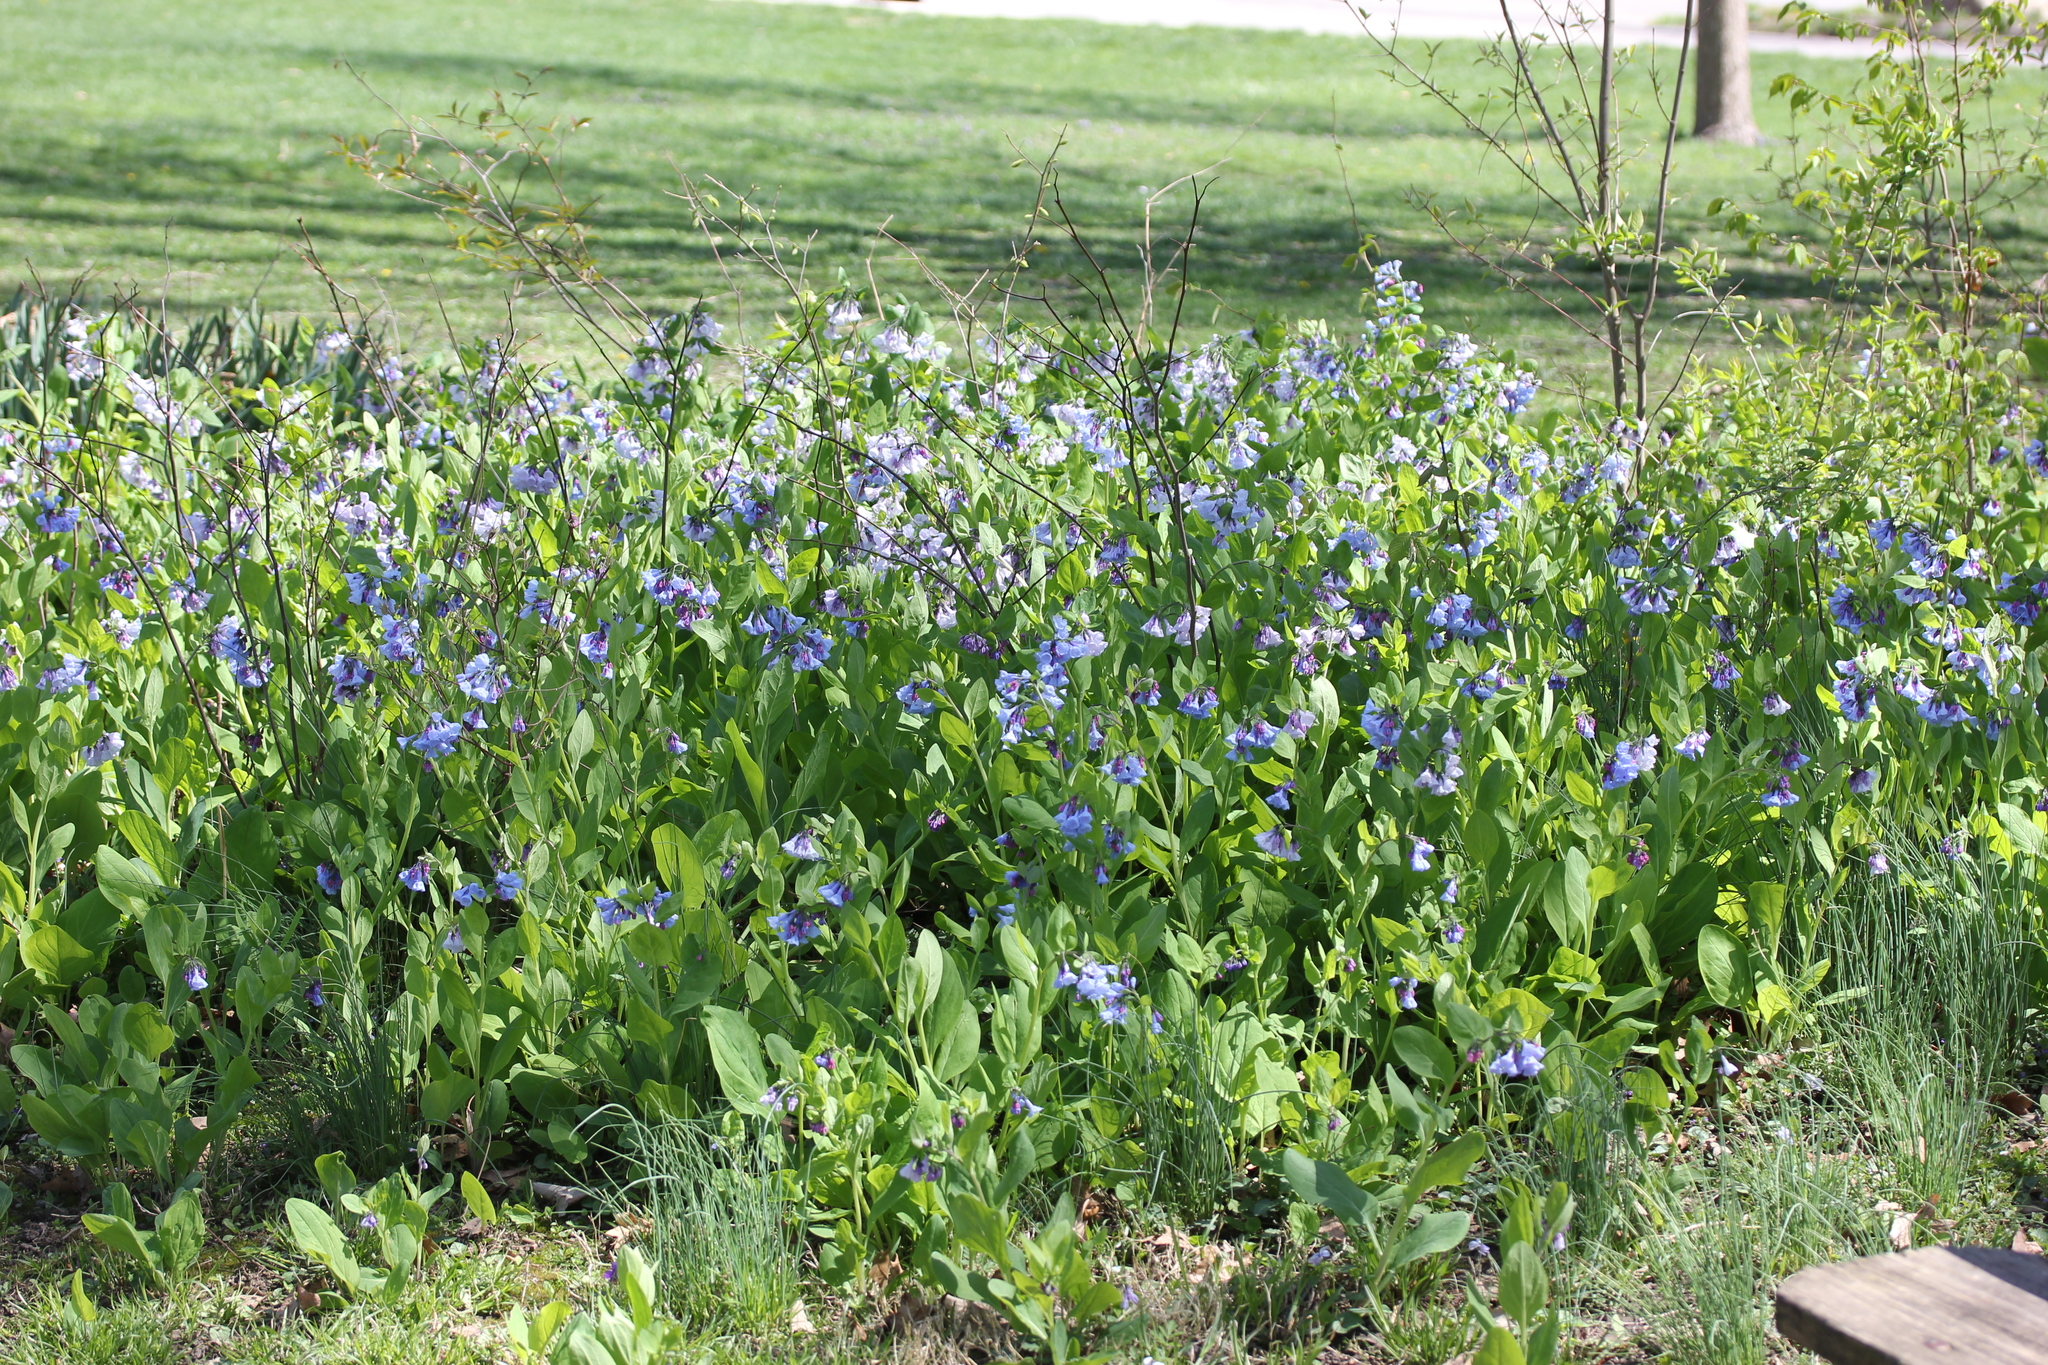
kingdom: Plantae
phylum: Tracheophyta
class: Magnoliopsida
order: Boraginales
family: Boraginaceae
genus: Mertensia
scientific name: Mertensia virginica
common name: Virginia bluebells
